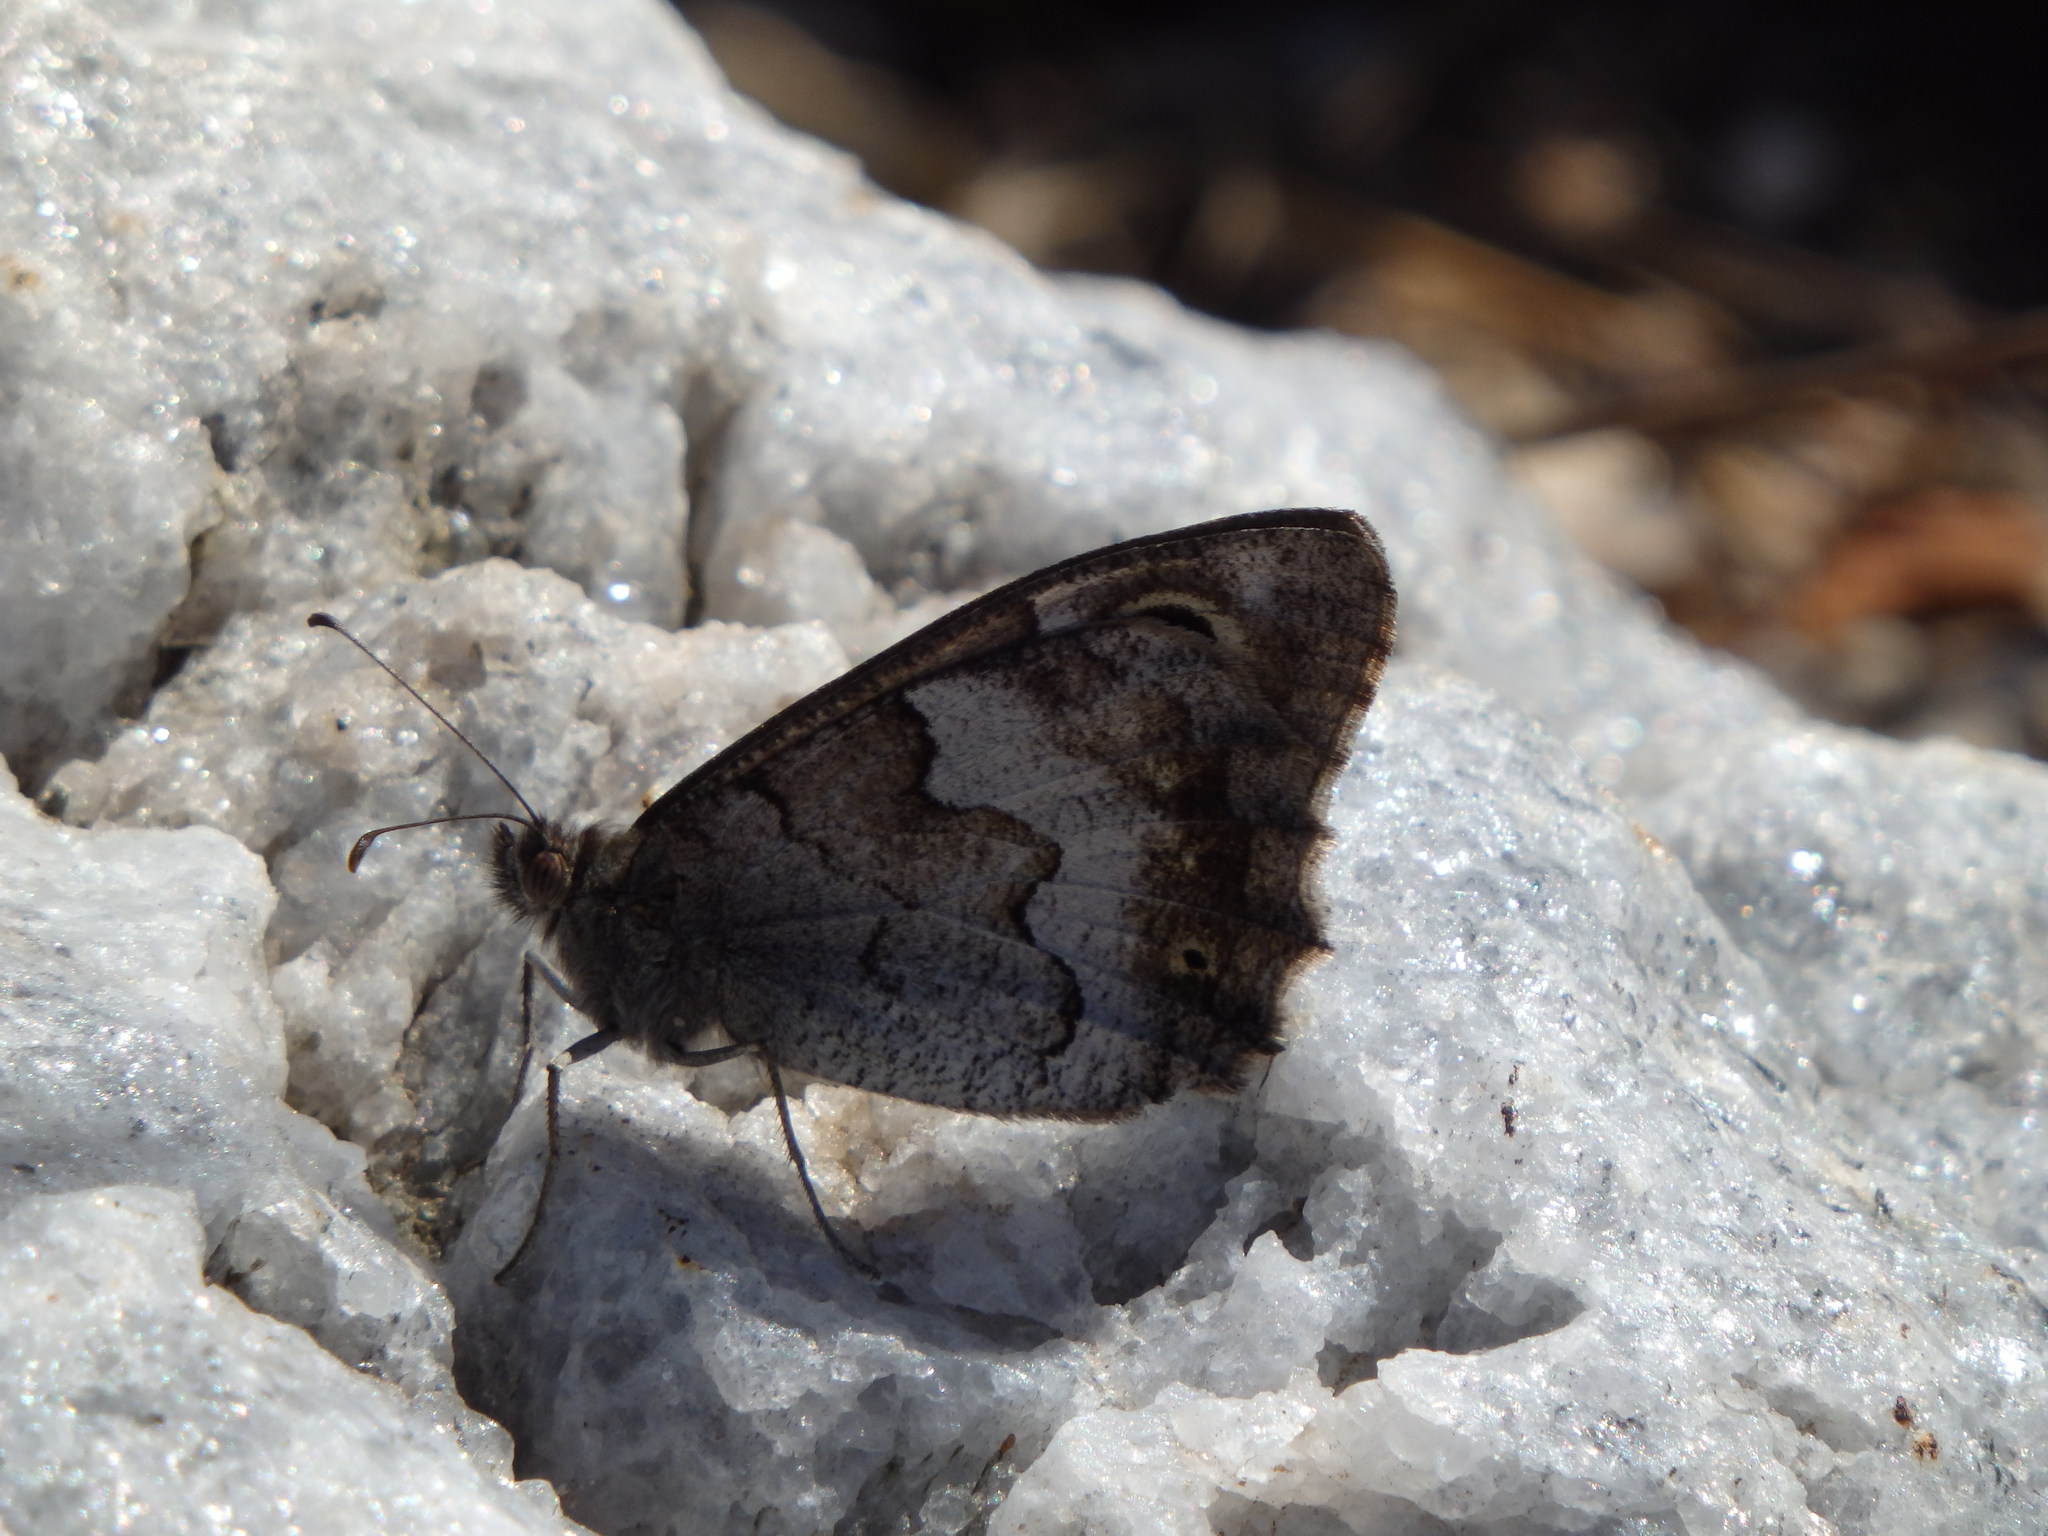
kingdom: Animalia
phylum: Arthropoda
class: Insecta
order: Lepidoptera
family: Nymphalidae
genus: Hipparchia
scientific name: Hipparchia statilinus
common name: Tree grayling
